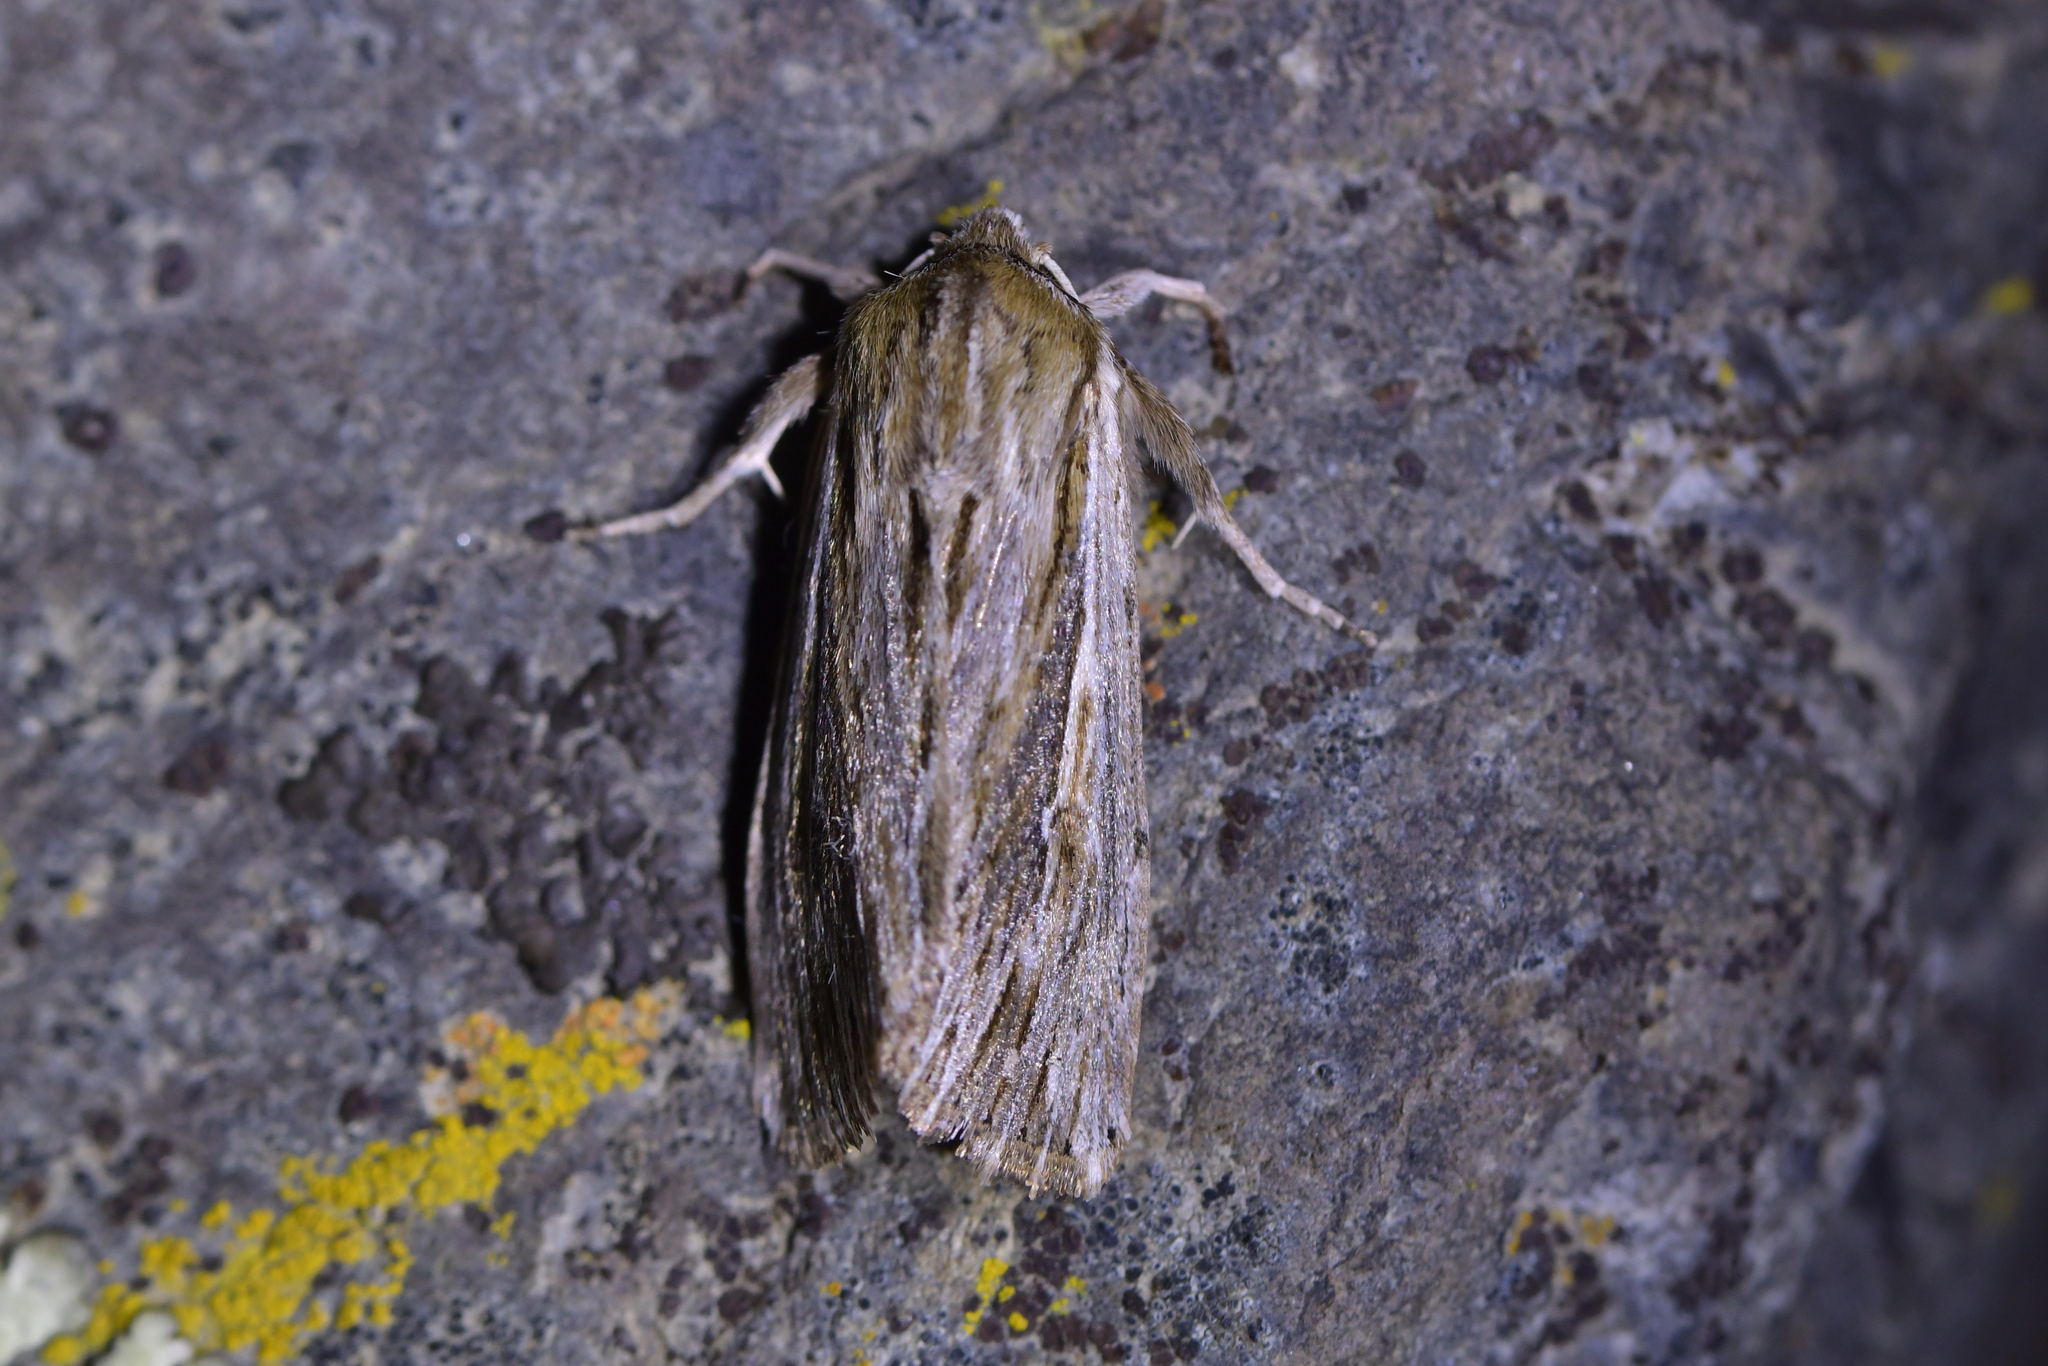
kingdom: Animalia
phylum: Arthropoda
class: Insecta
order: Lepidoptera
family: Noctuidae
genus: Persectania
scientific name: Persectania aversa
